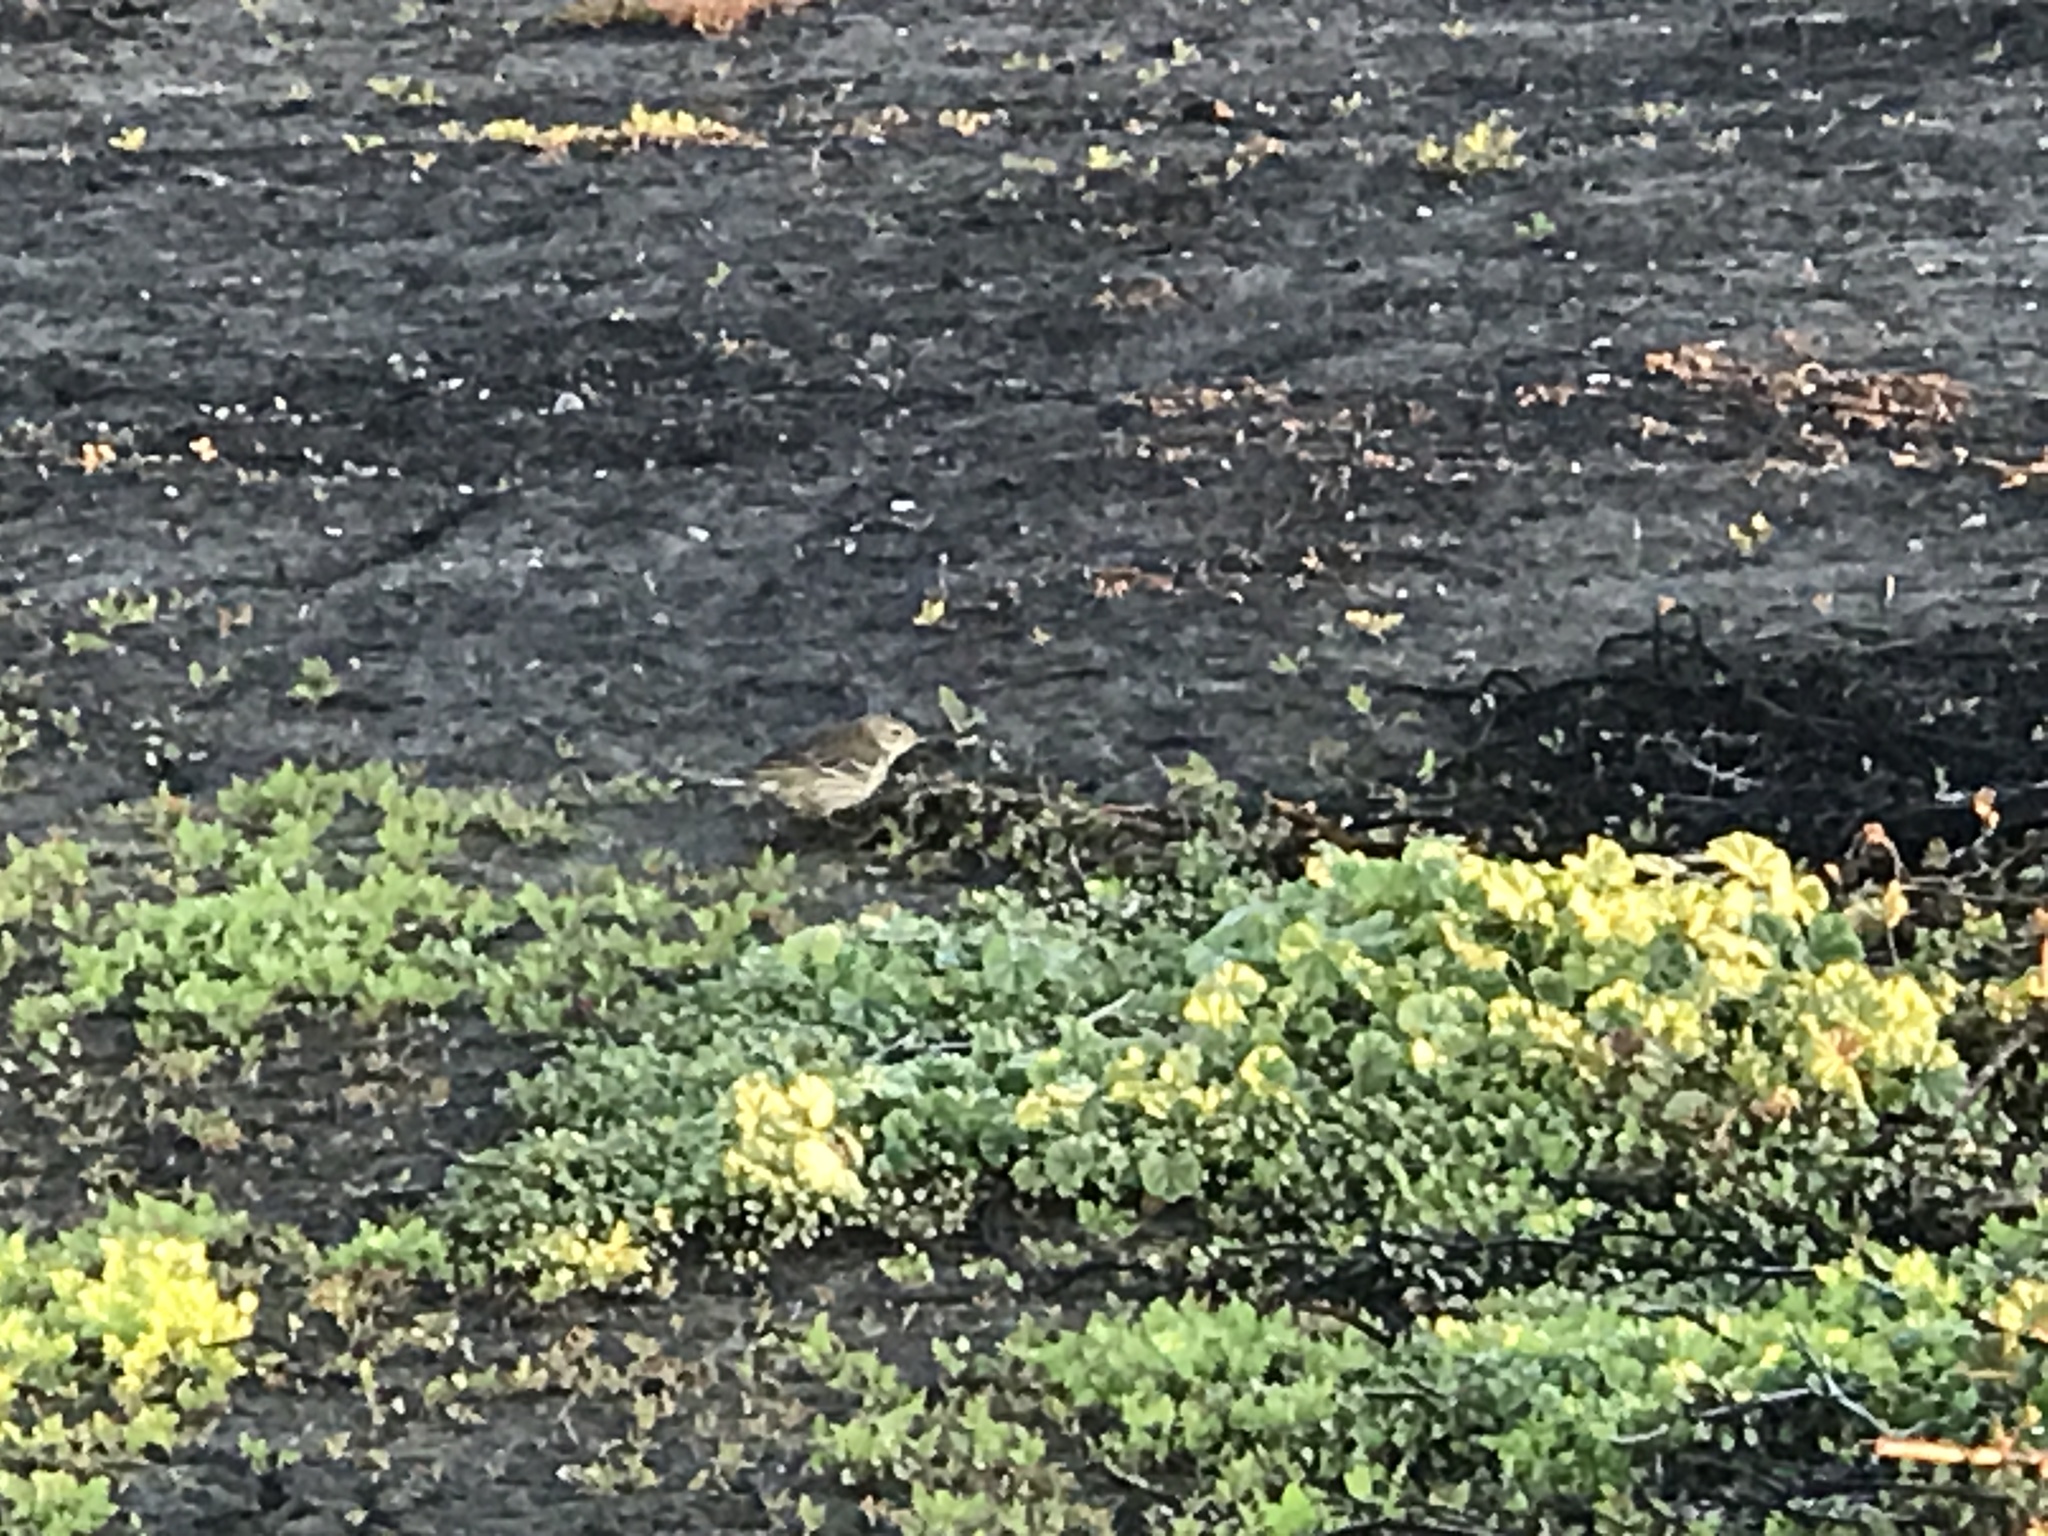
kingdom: Animalia
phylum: Chordata
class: Aves
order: Passeriformes
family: Motacillidae
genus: Anthus
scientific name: Anthus rubescens
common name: Buff-bellied pipit
